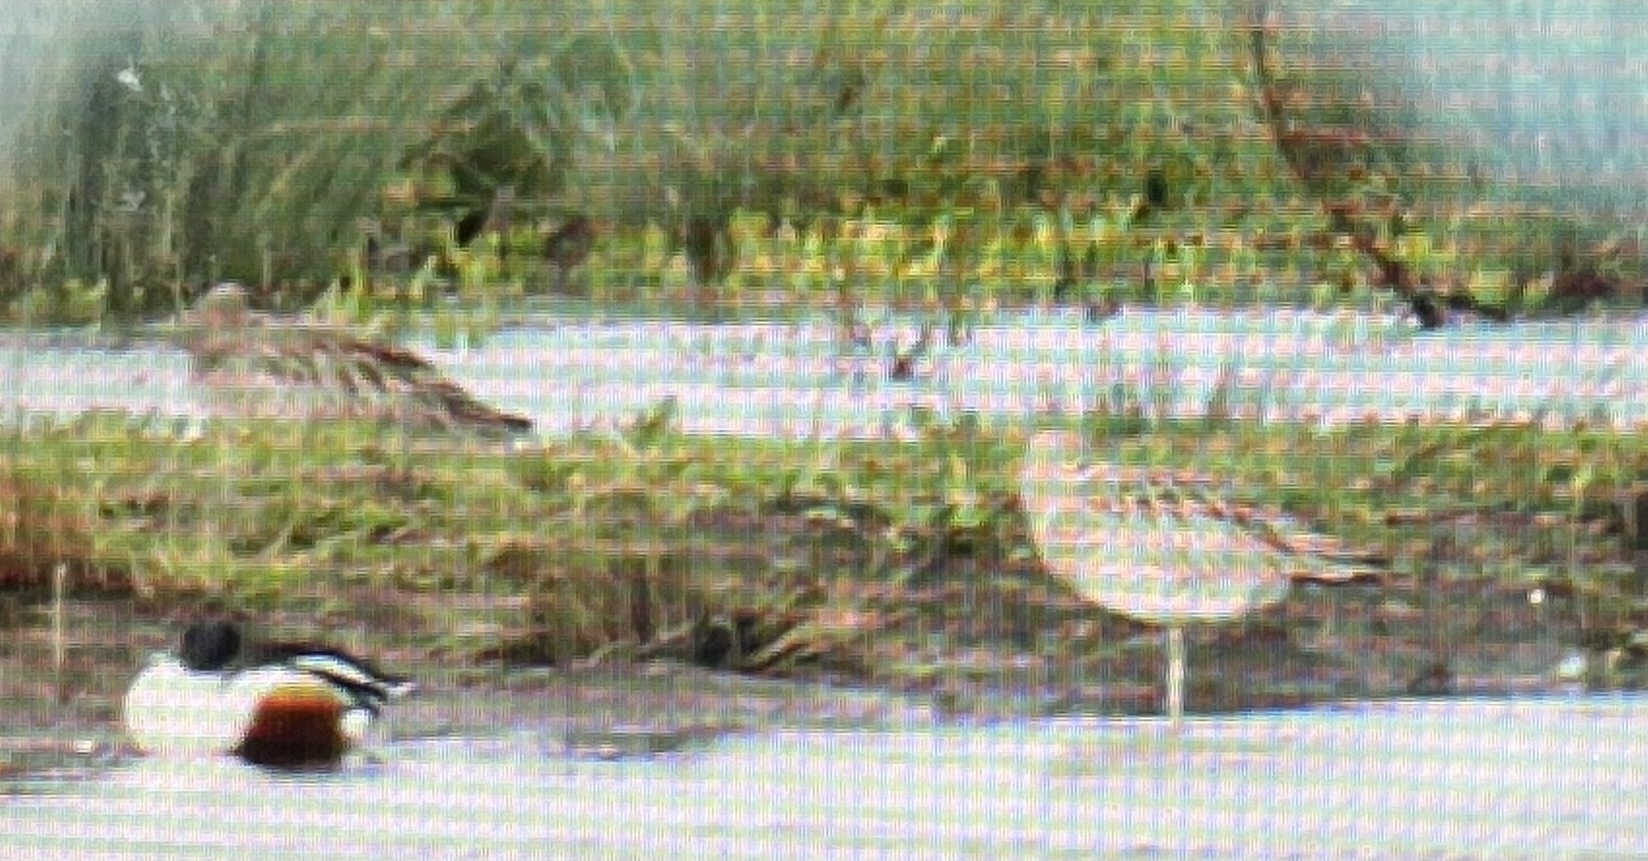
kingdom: Animalia
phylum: Chordata
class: Aves
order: Charadriiformes
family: Scolopacidae
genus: Numenius
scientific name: Numenius arquata
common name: Eurasian curlew
